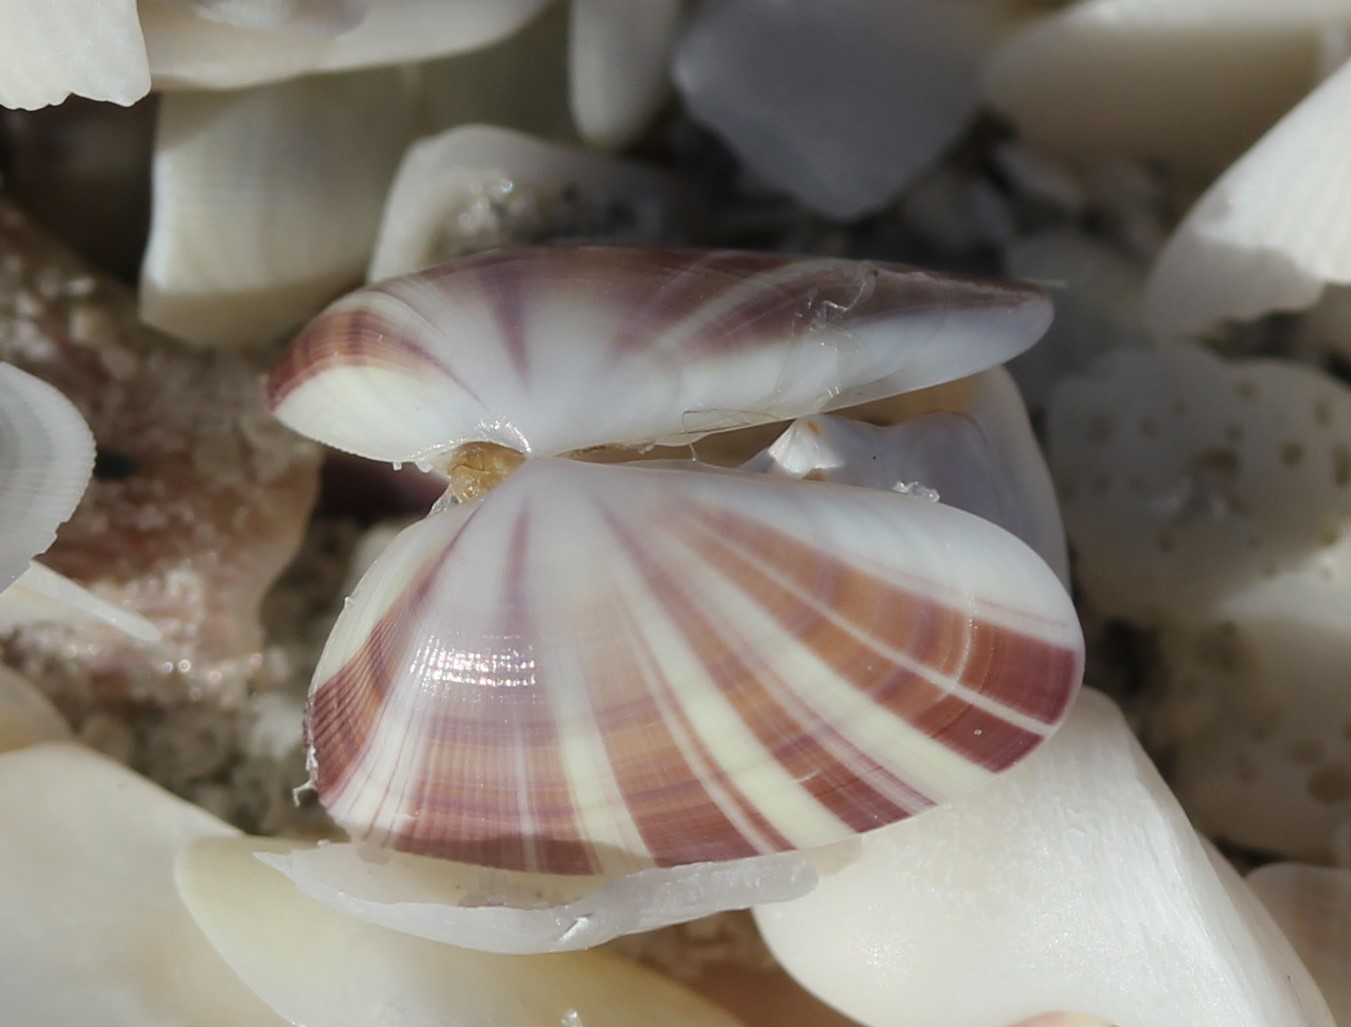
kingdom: Animalia
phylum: Mollusca
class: Bivalvia
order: Cardiida
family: Donacidae
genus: Donax
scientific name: Donax variabilis
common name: Butterfly shell
